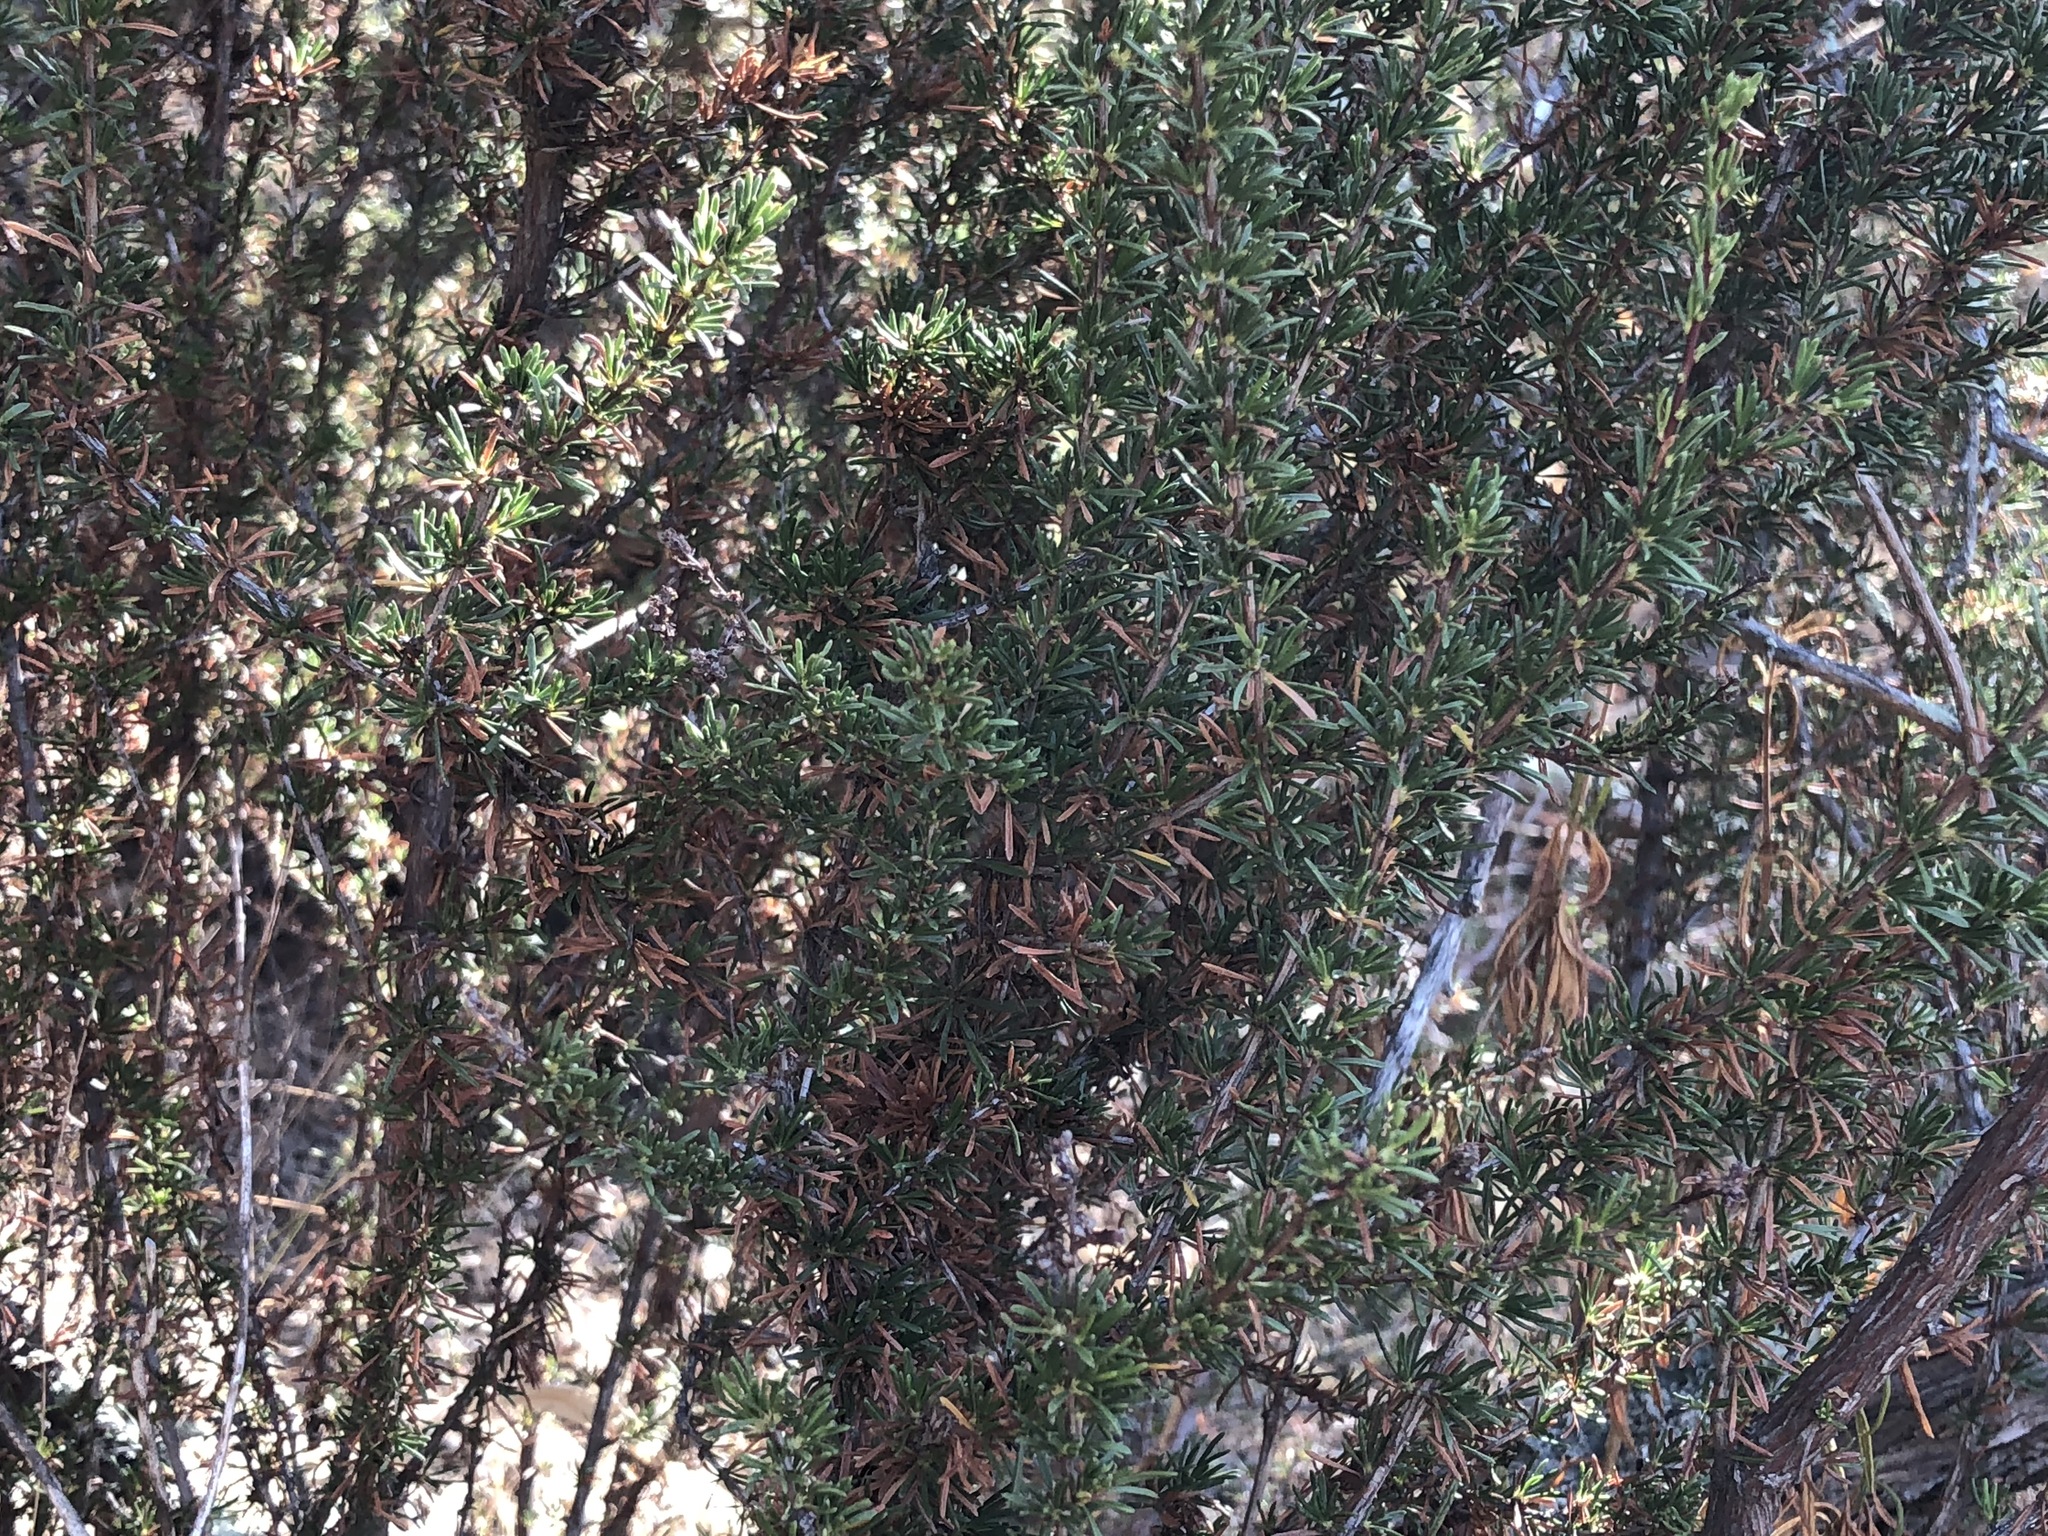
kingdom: Plantae
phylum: Tracheophyta
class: Magnoliopsida
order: Rosales
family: Rosaceae
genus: Adenostoma
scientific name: Adenostoma fasciculatum
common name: Chamise
